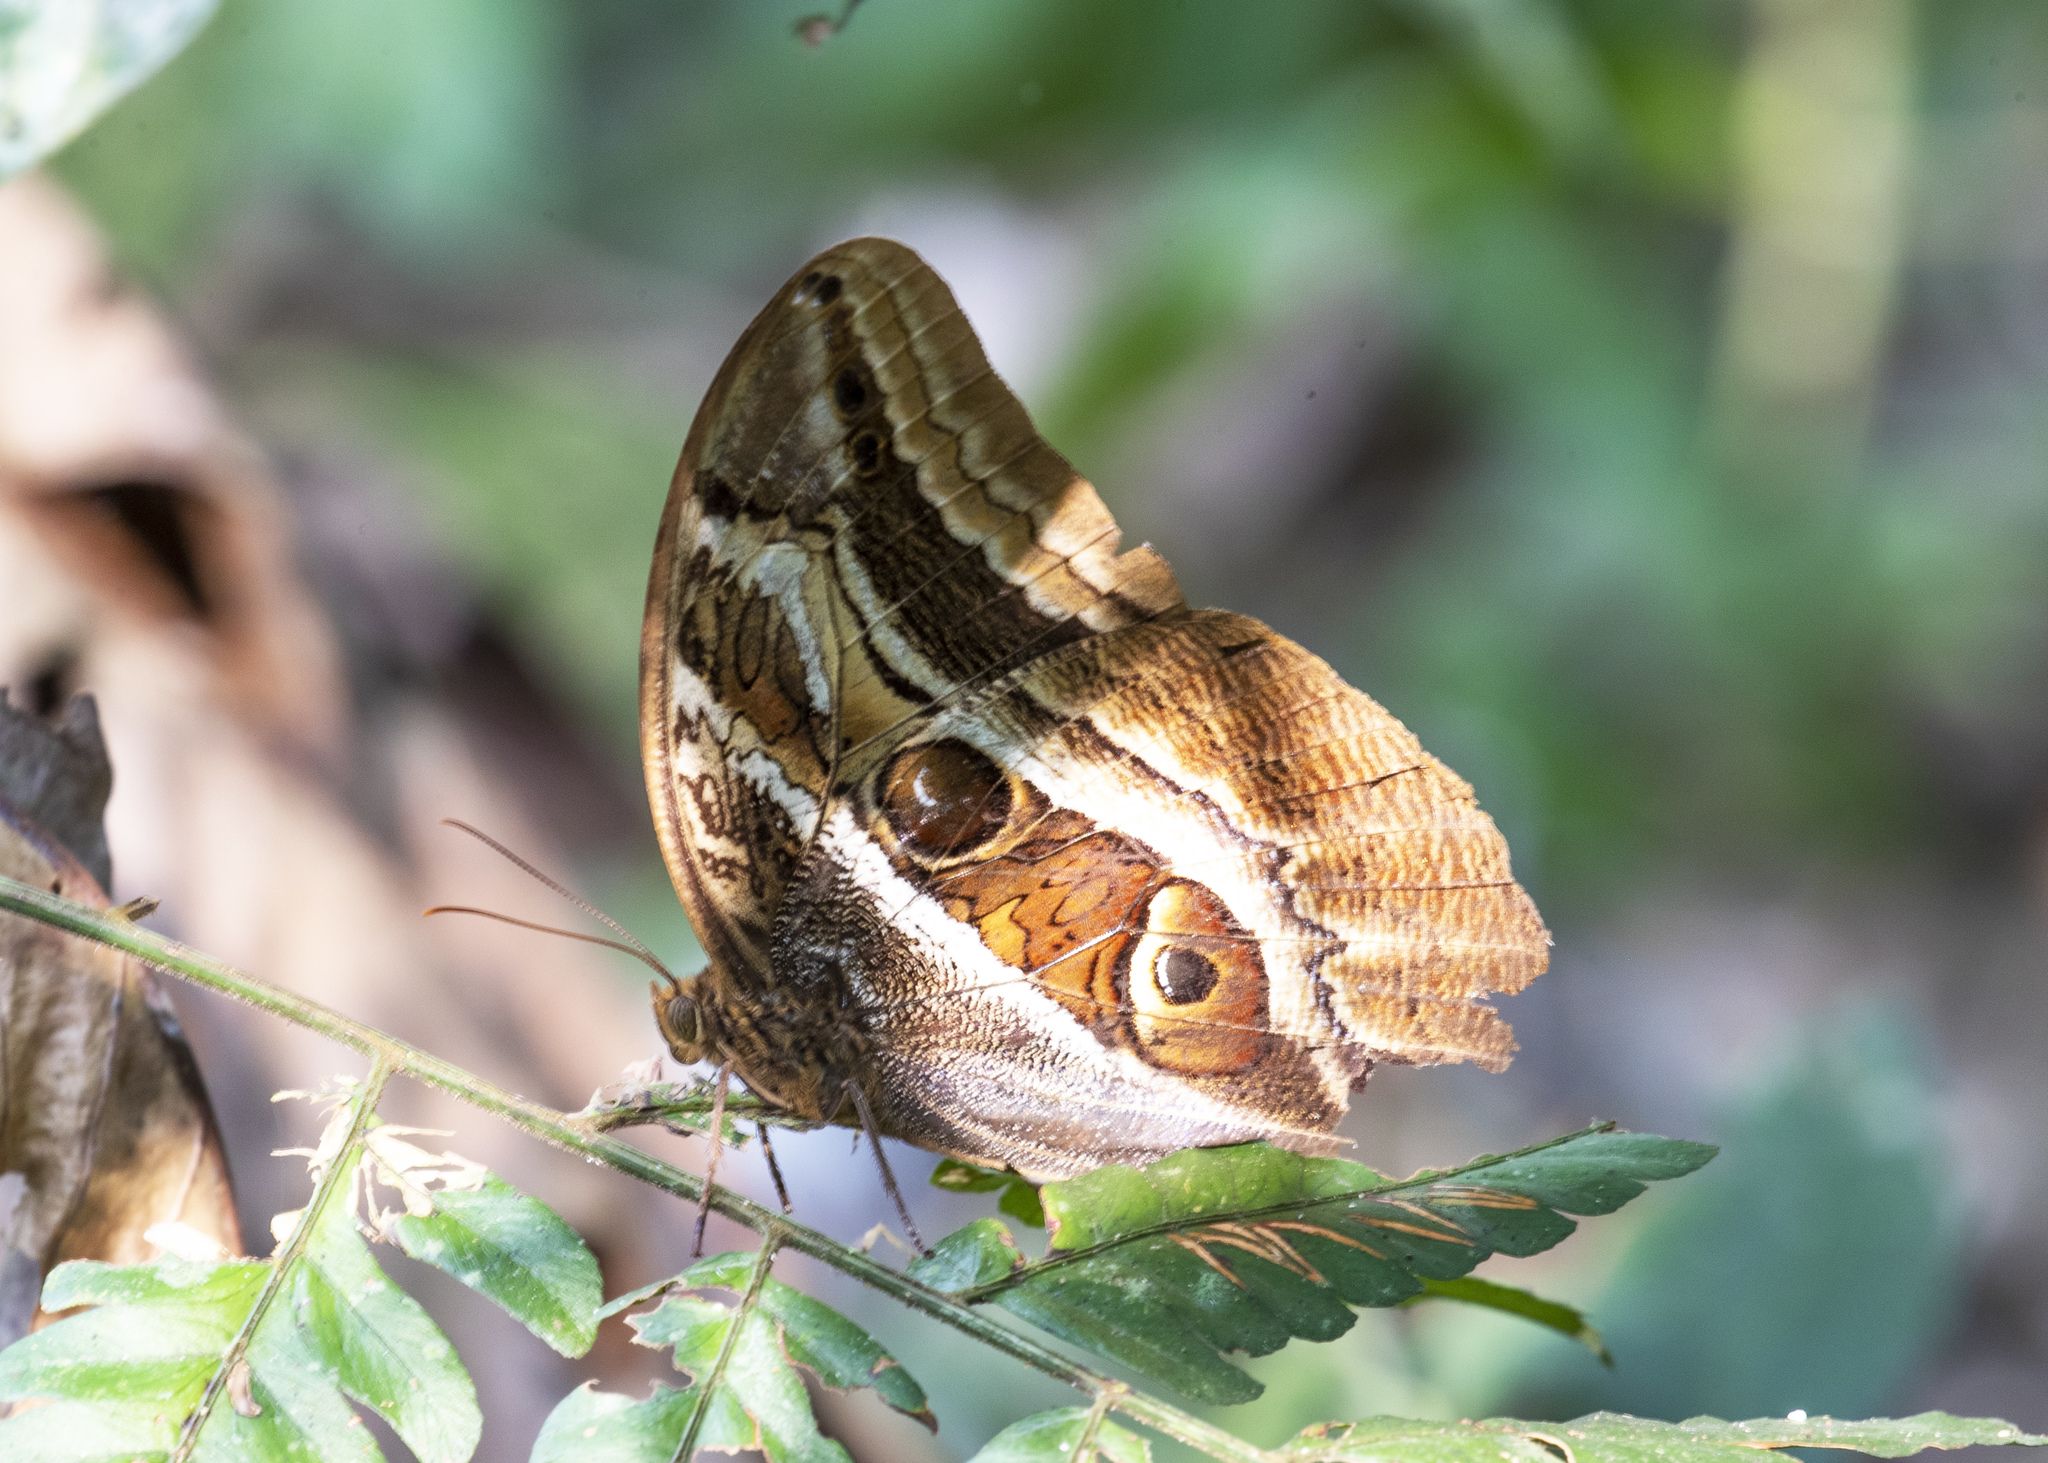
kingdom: Animalia
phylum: Arthropoda
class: Insecta
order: Lepidoptera
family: Nymphalidae
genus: Caligopsis
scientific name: Caligopsis seleucida
